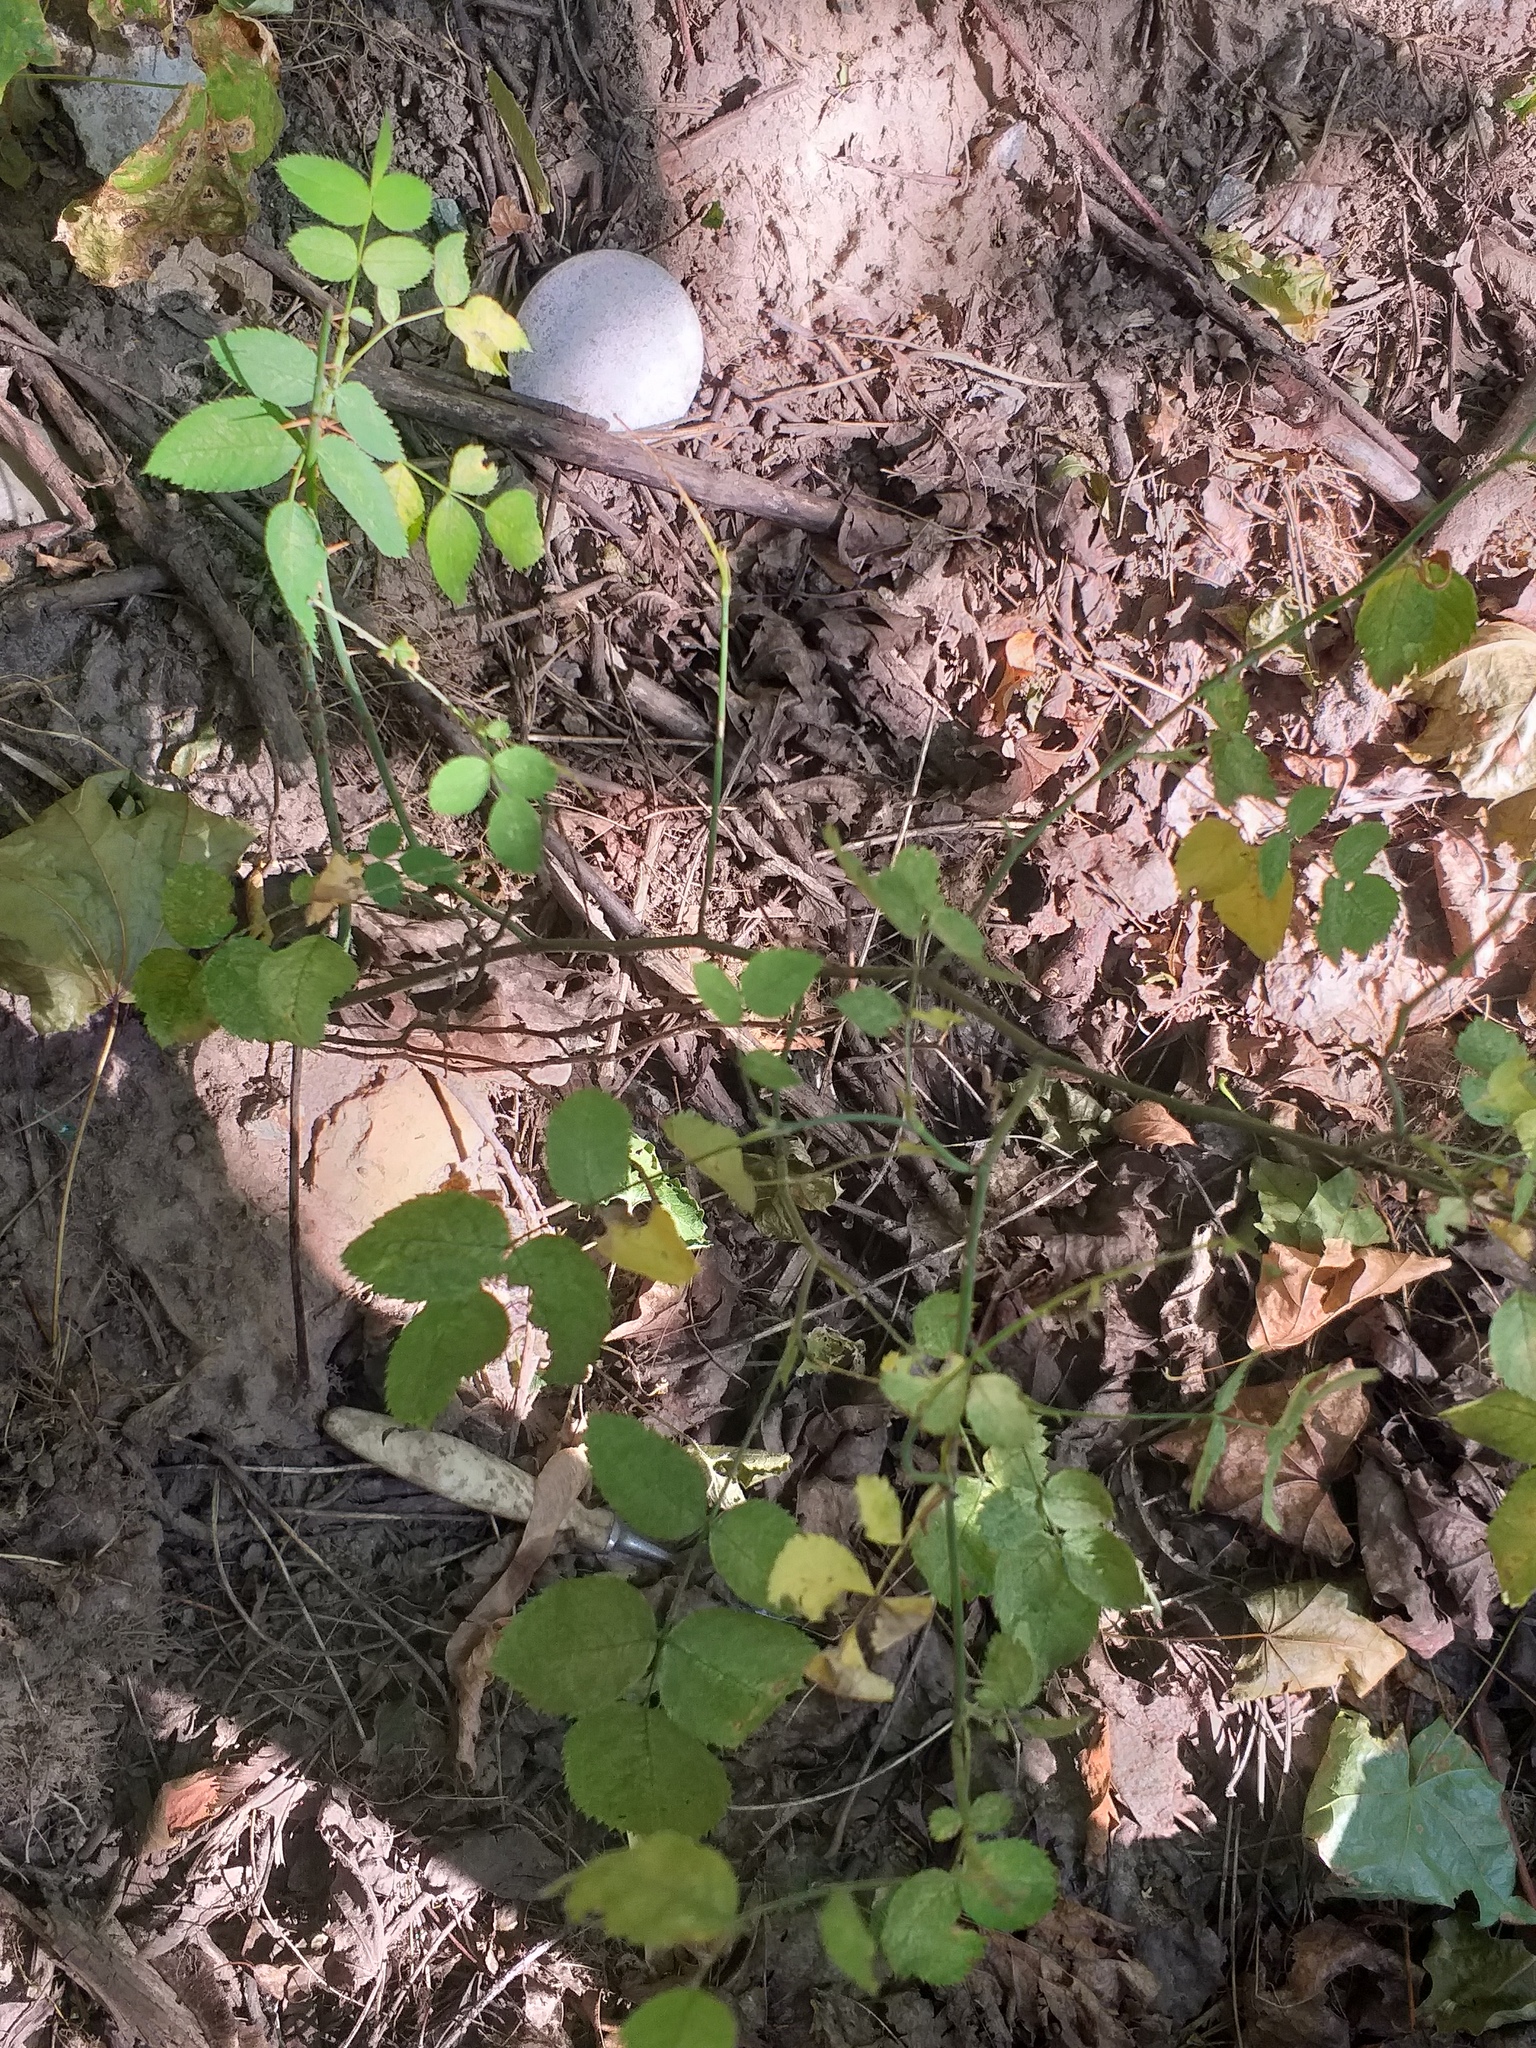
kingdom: Plantae
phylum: Tracheophyta
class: Magnoliopsida
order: Rosales
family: Rosaceae
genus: Rosa
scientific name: Rosa
